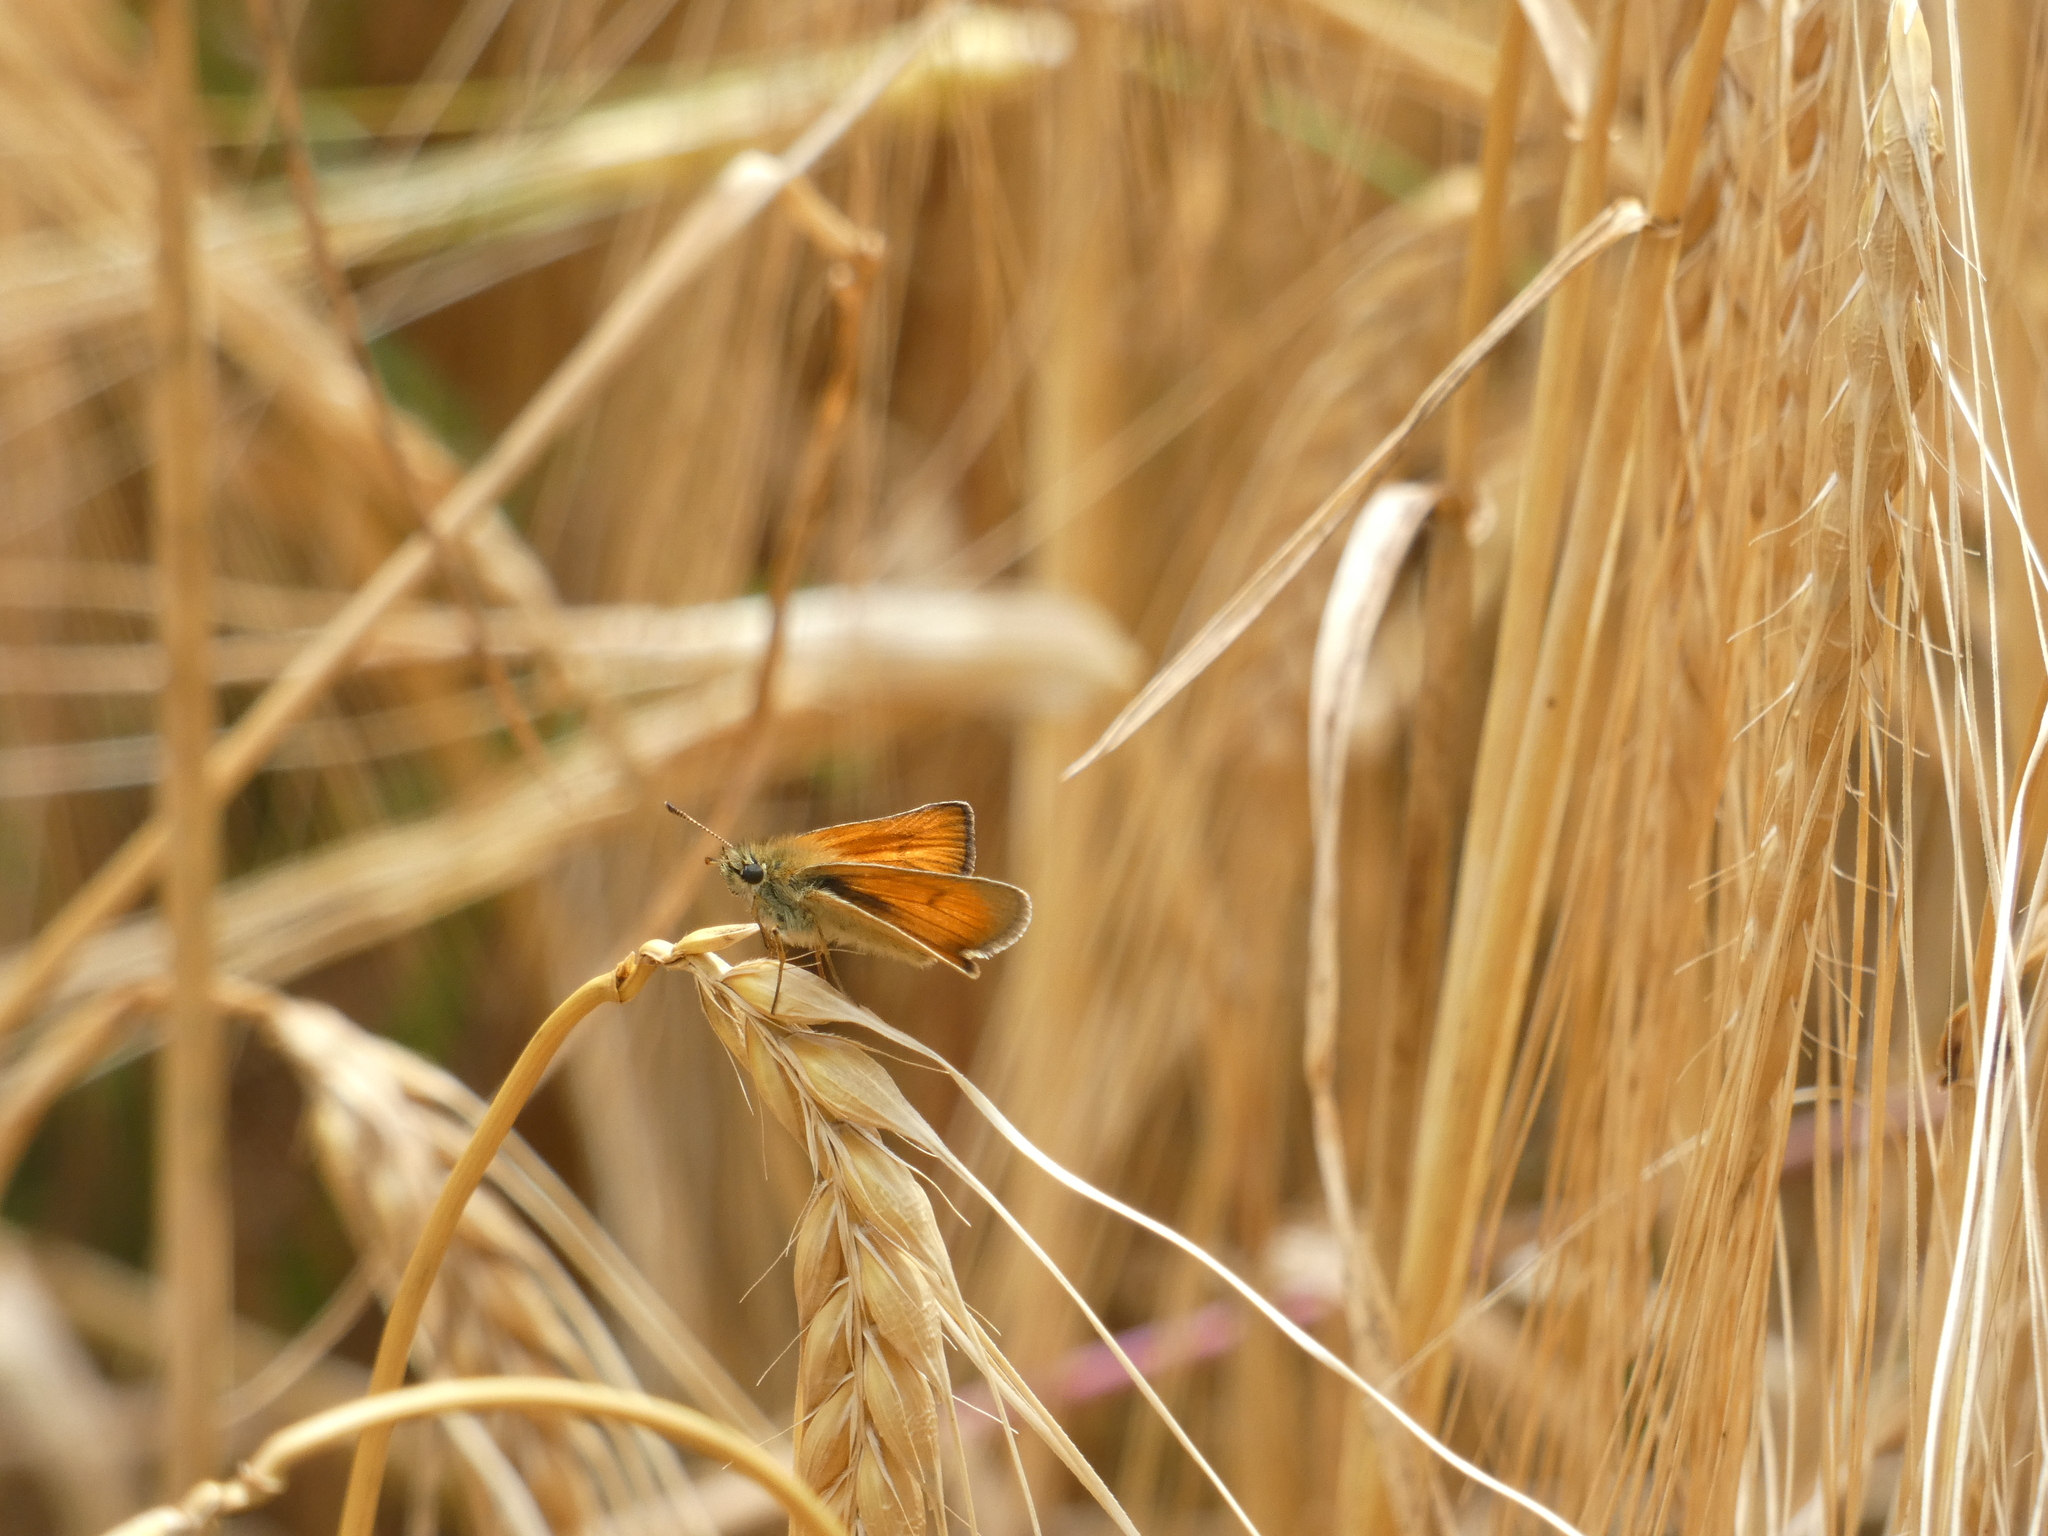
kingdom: Animalia
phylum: Arthropoda
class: Insecta
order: Lepidoptera
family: Hesperiidae
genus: Thymelicus
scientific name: Thymelicus sylvestris
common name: Small skipper
